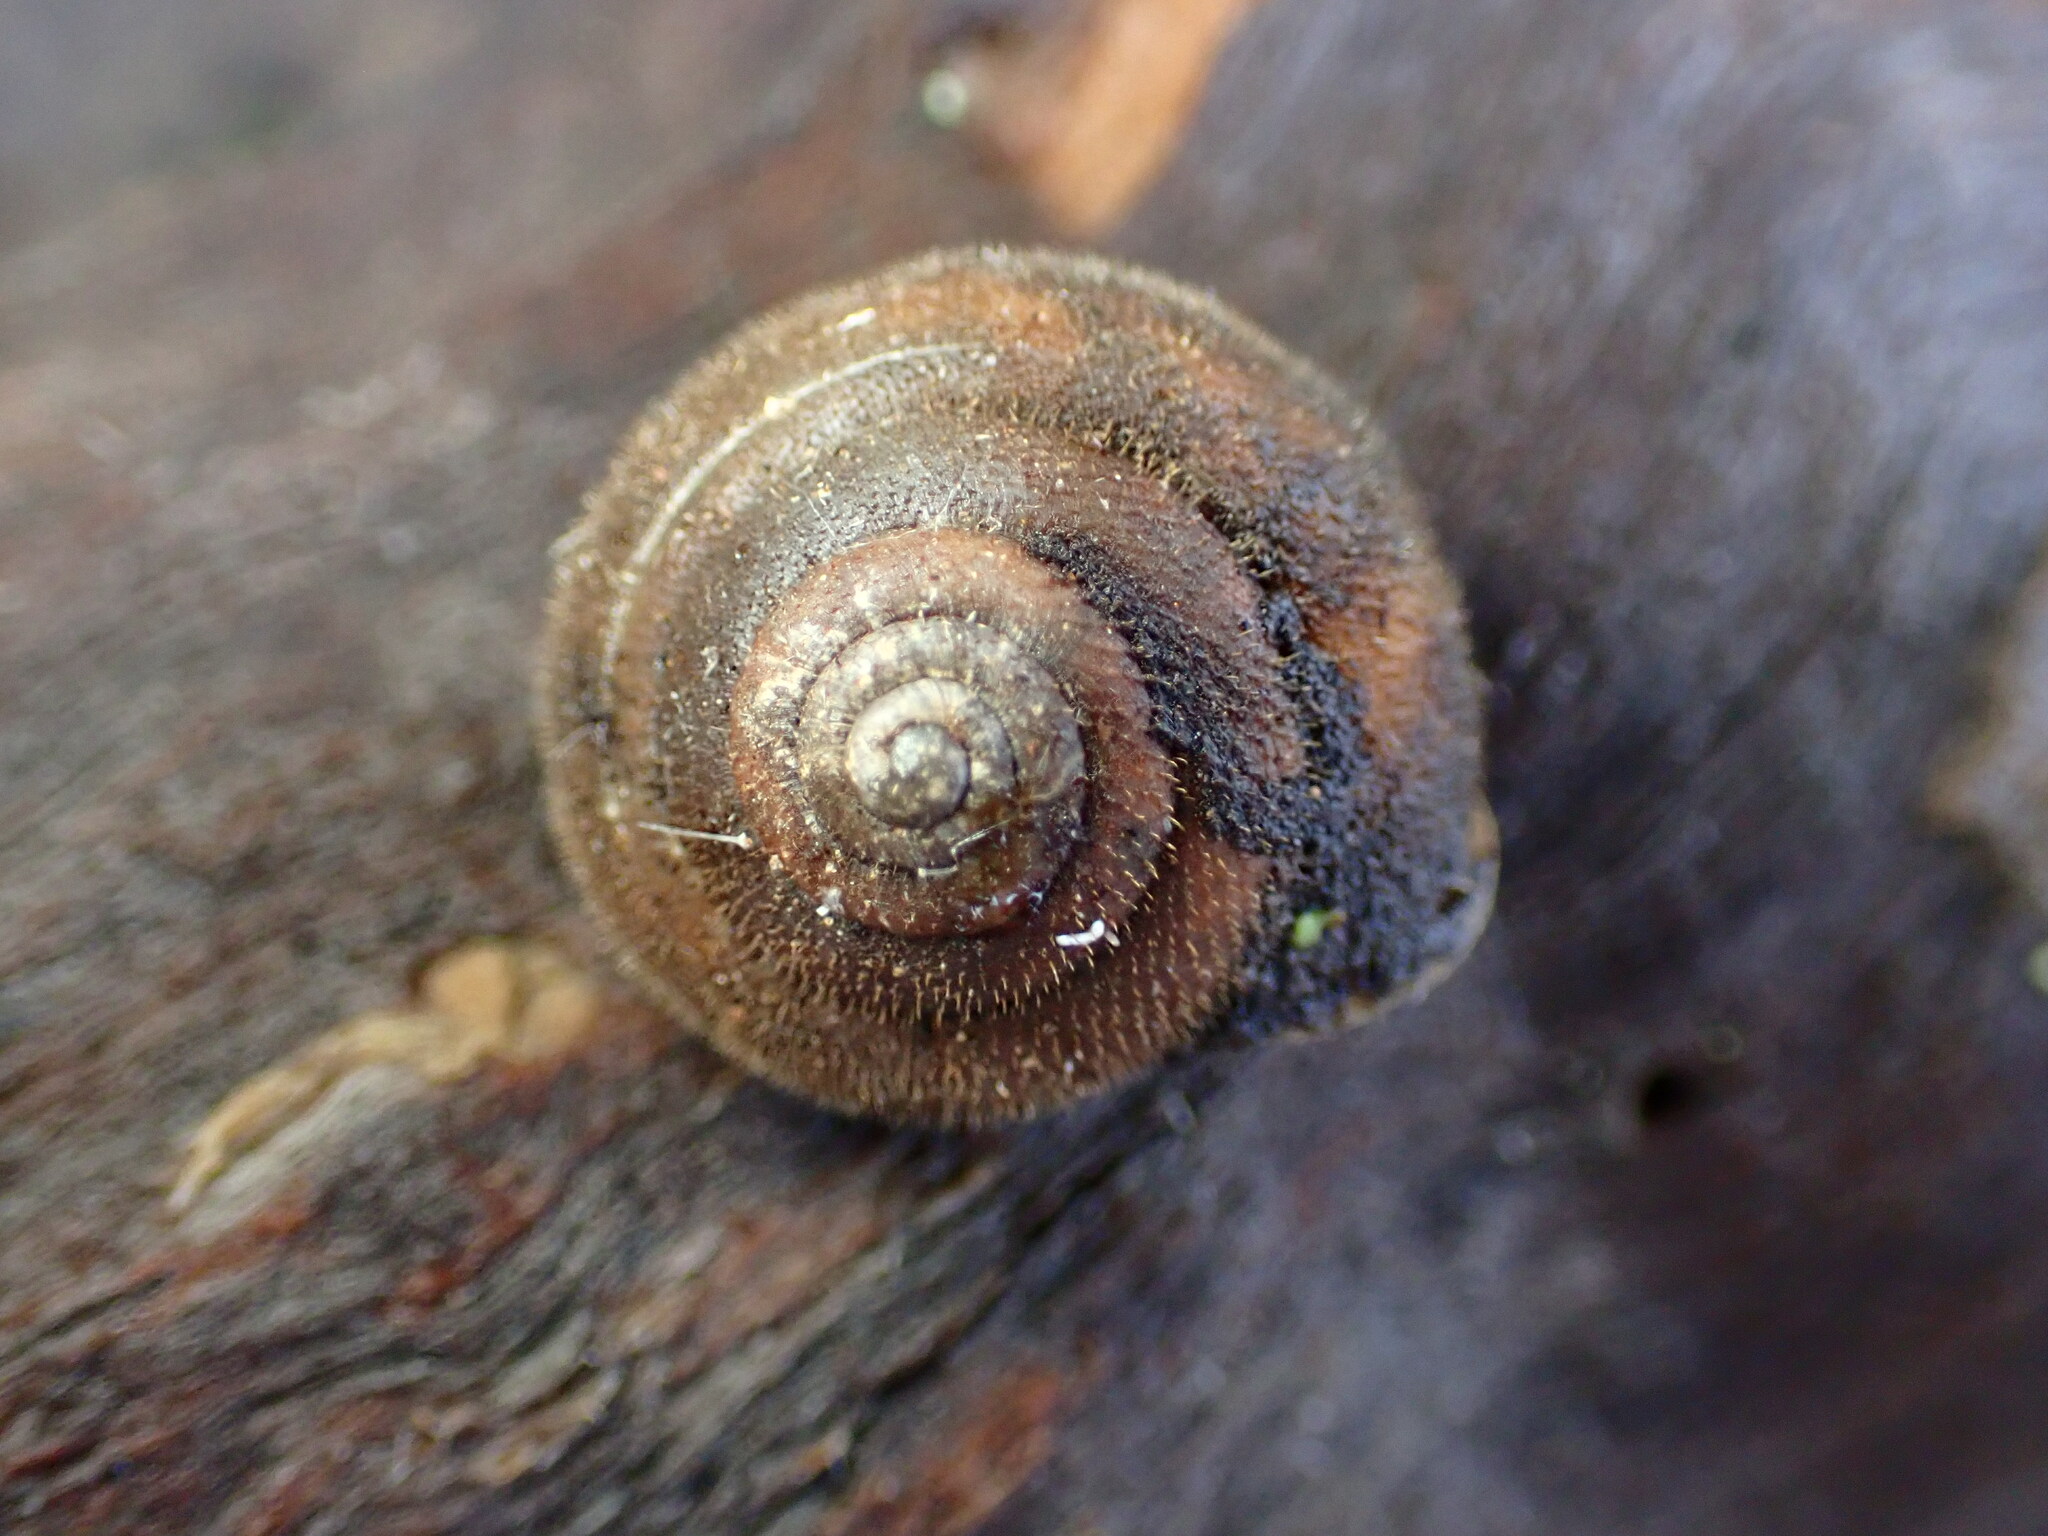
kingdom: Animalia
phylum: Mollusca
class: Gastropoda
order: Stylommatophora
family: Polygyridae
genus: Vespericola
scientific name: Vespericola pilosus
